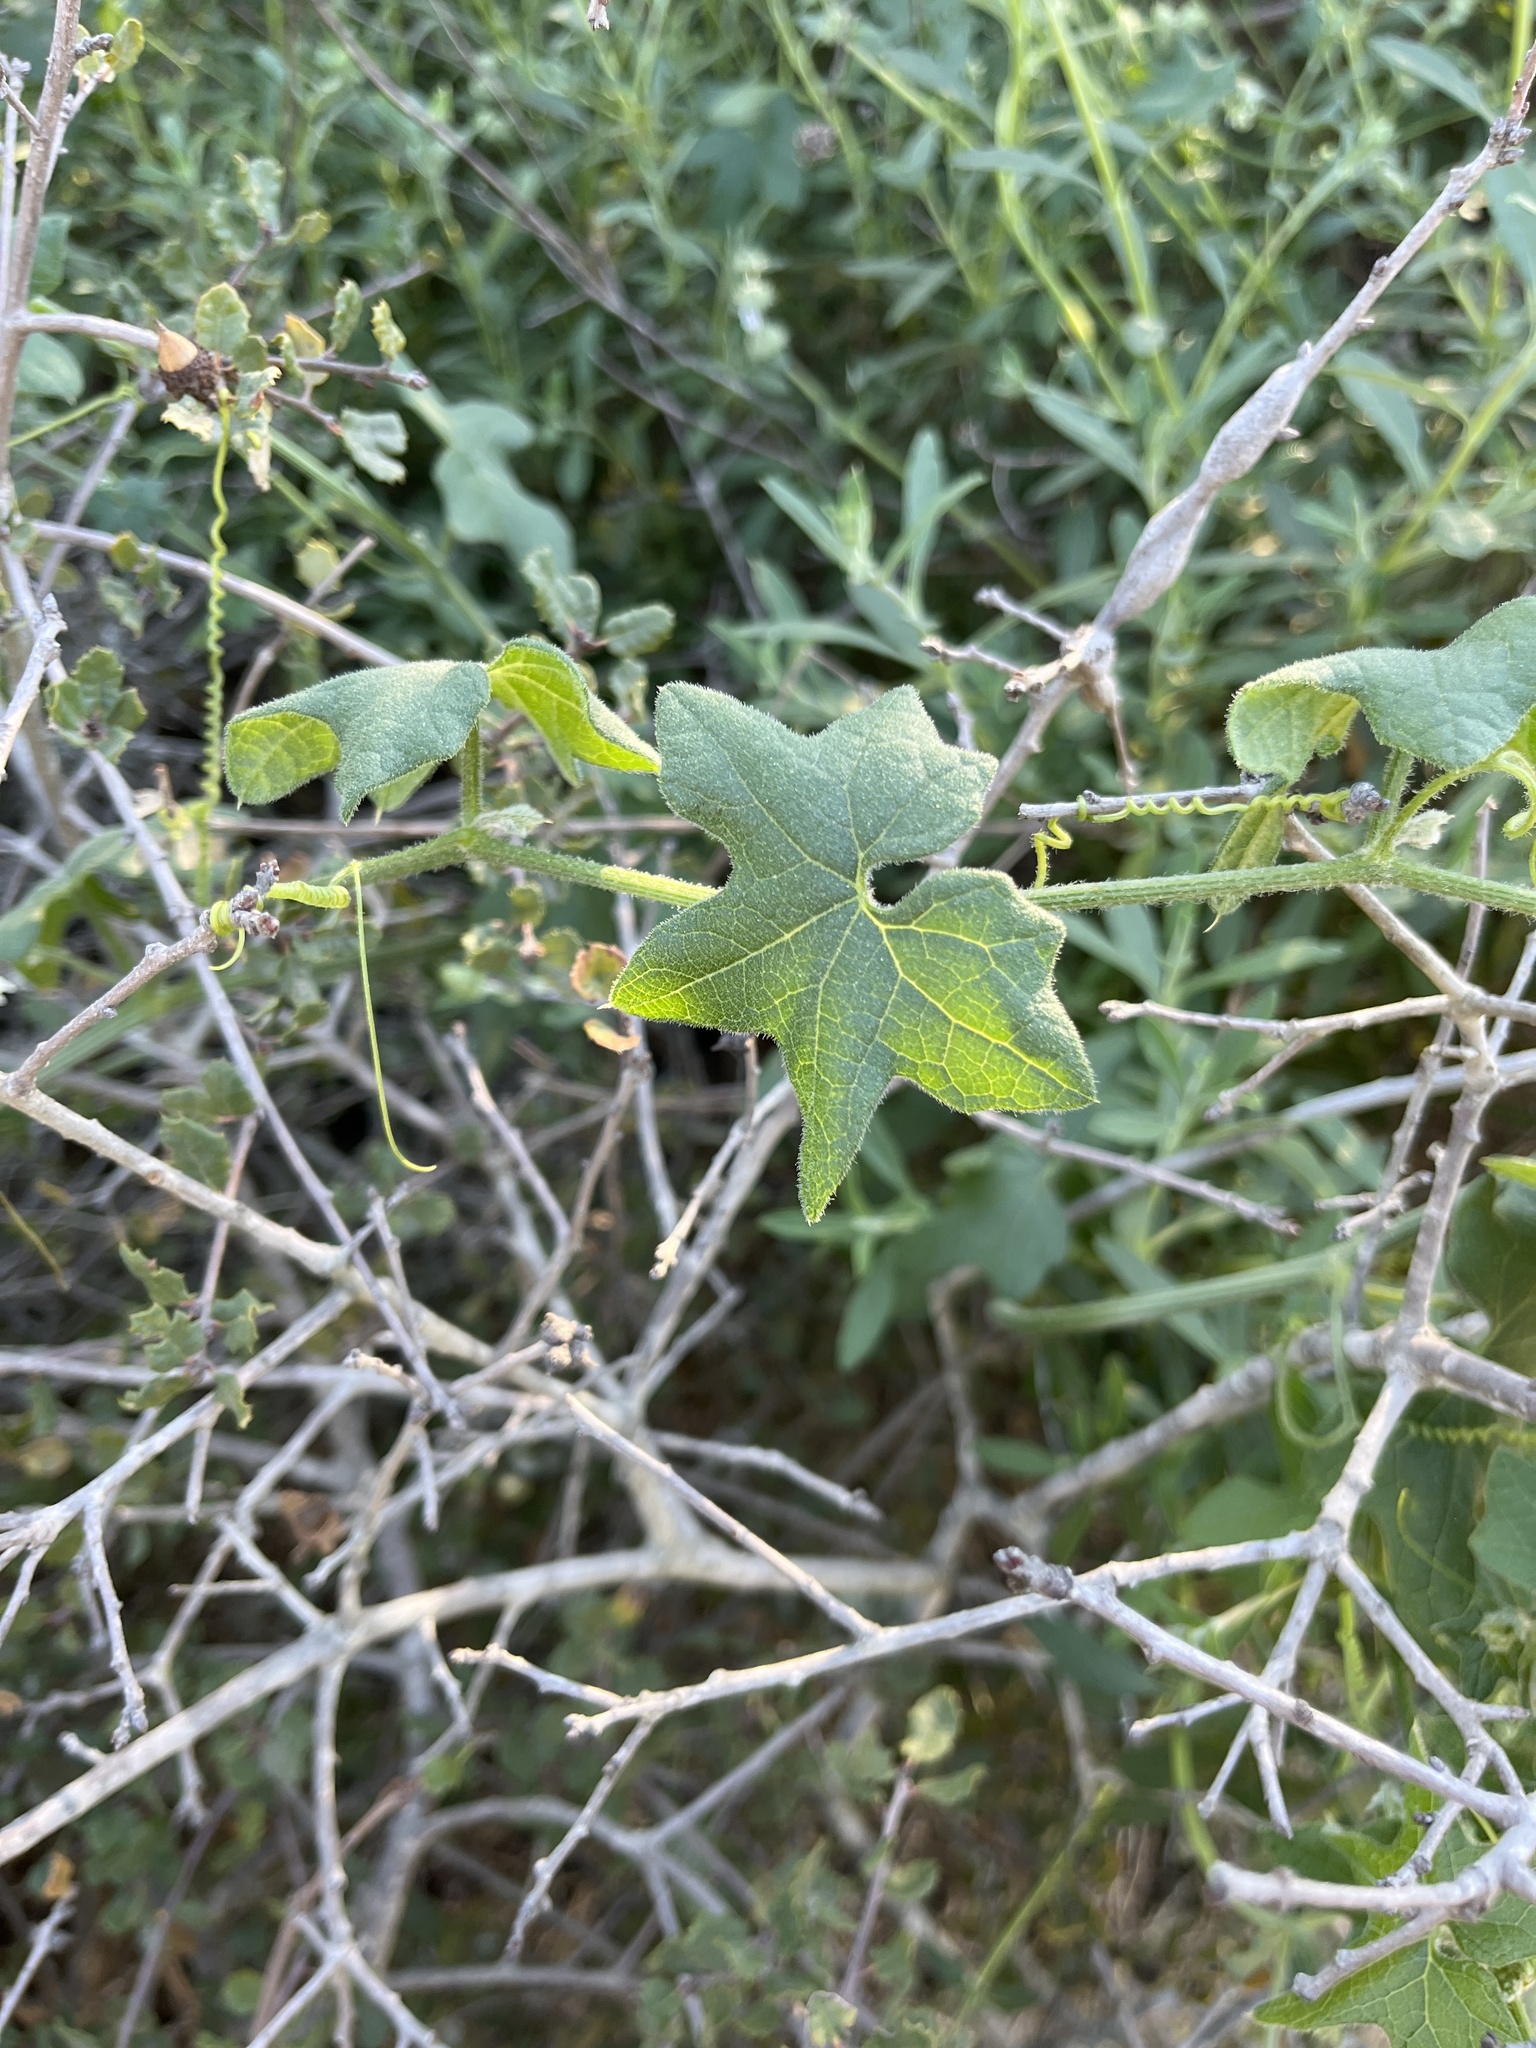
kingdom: Plantae
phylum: Tracheophyta
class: Magnoliopsida
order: Cucurbitales
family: Cucurbitaceae
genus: Marah
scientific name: Marah macrocarpa
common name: Cucamonga manroot
